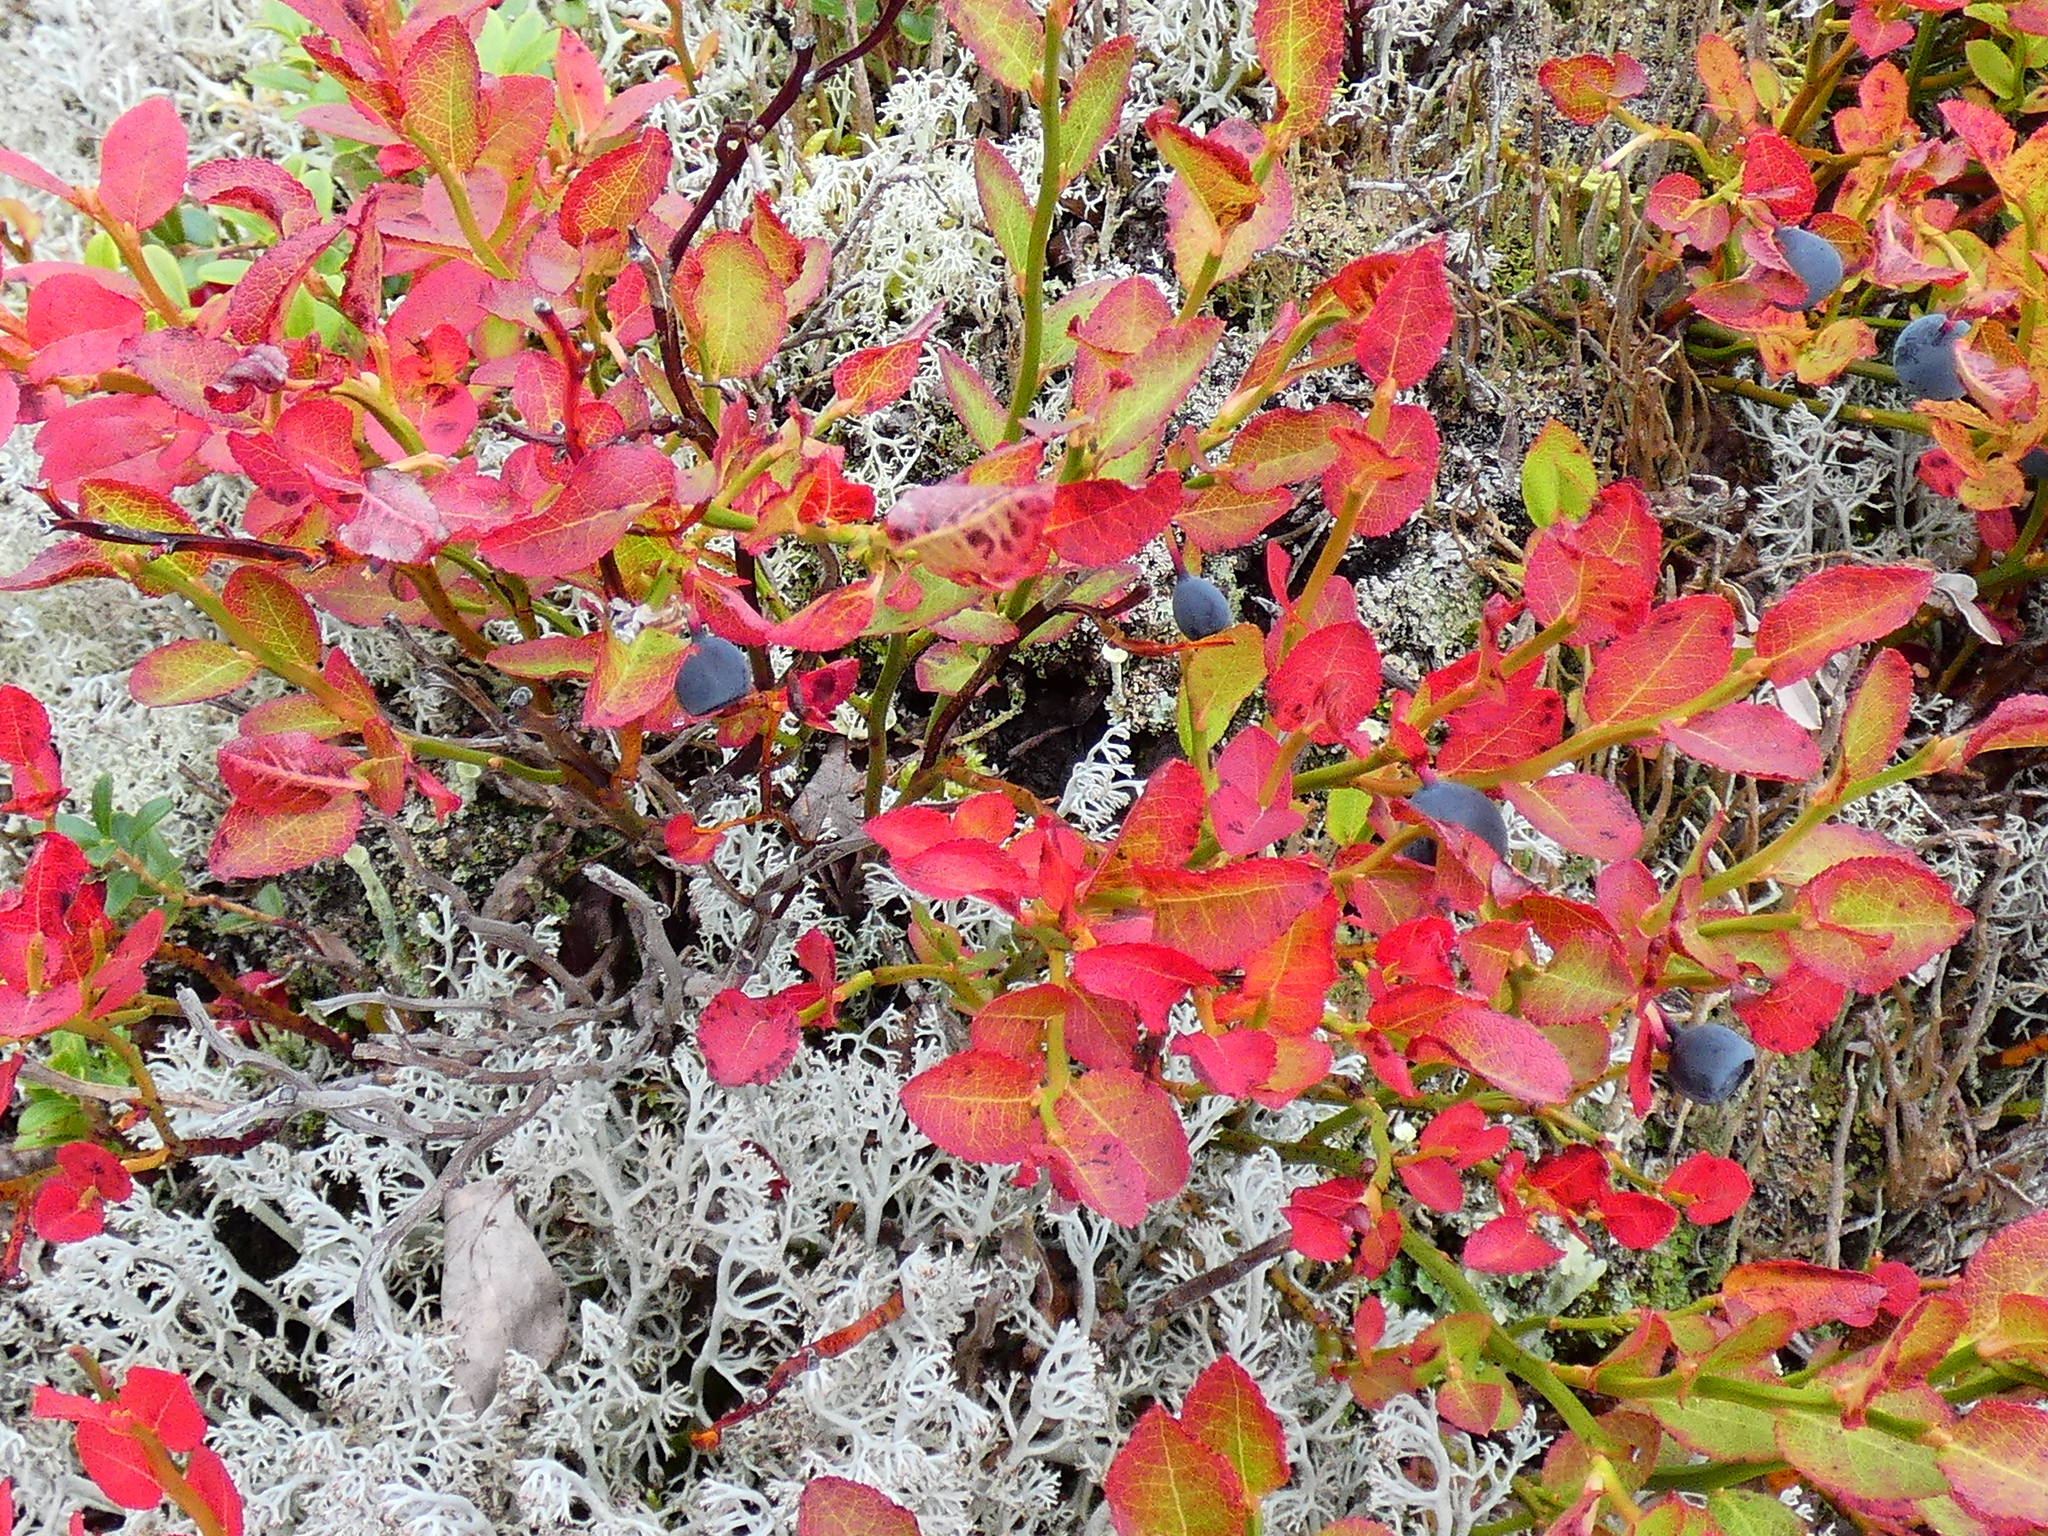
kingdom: Plantae
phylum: Tracheophyta
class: Magnoliopsida
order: Ericales
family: Ericaceae
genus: Vaccinium
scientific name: Vaccinium myrtillus
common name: Bilberry
